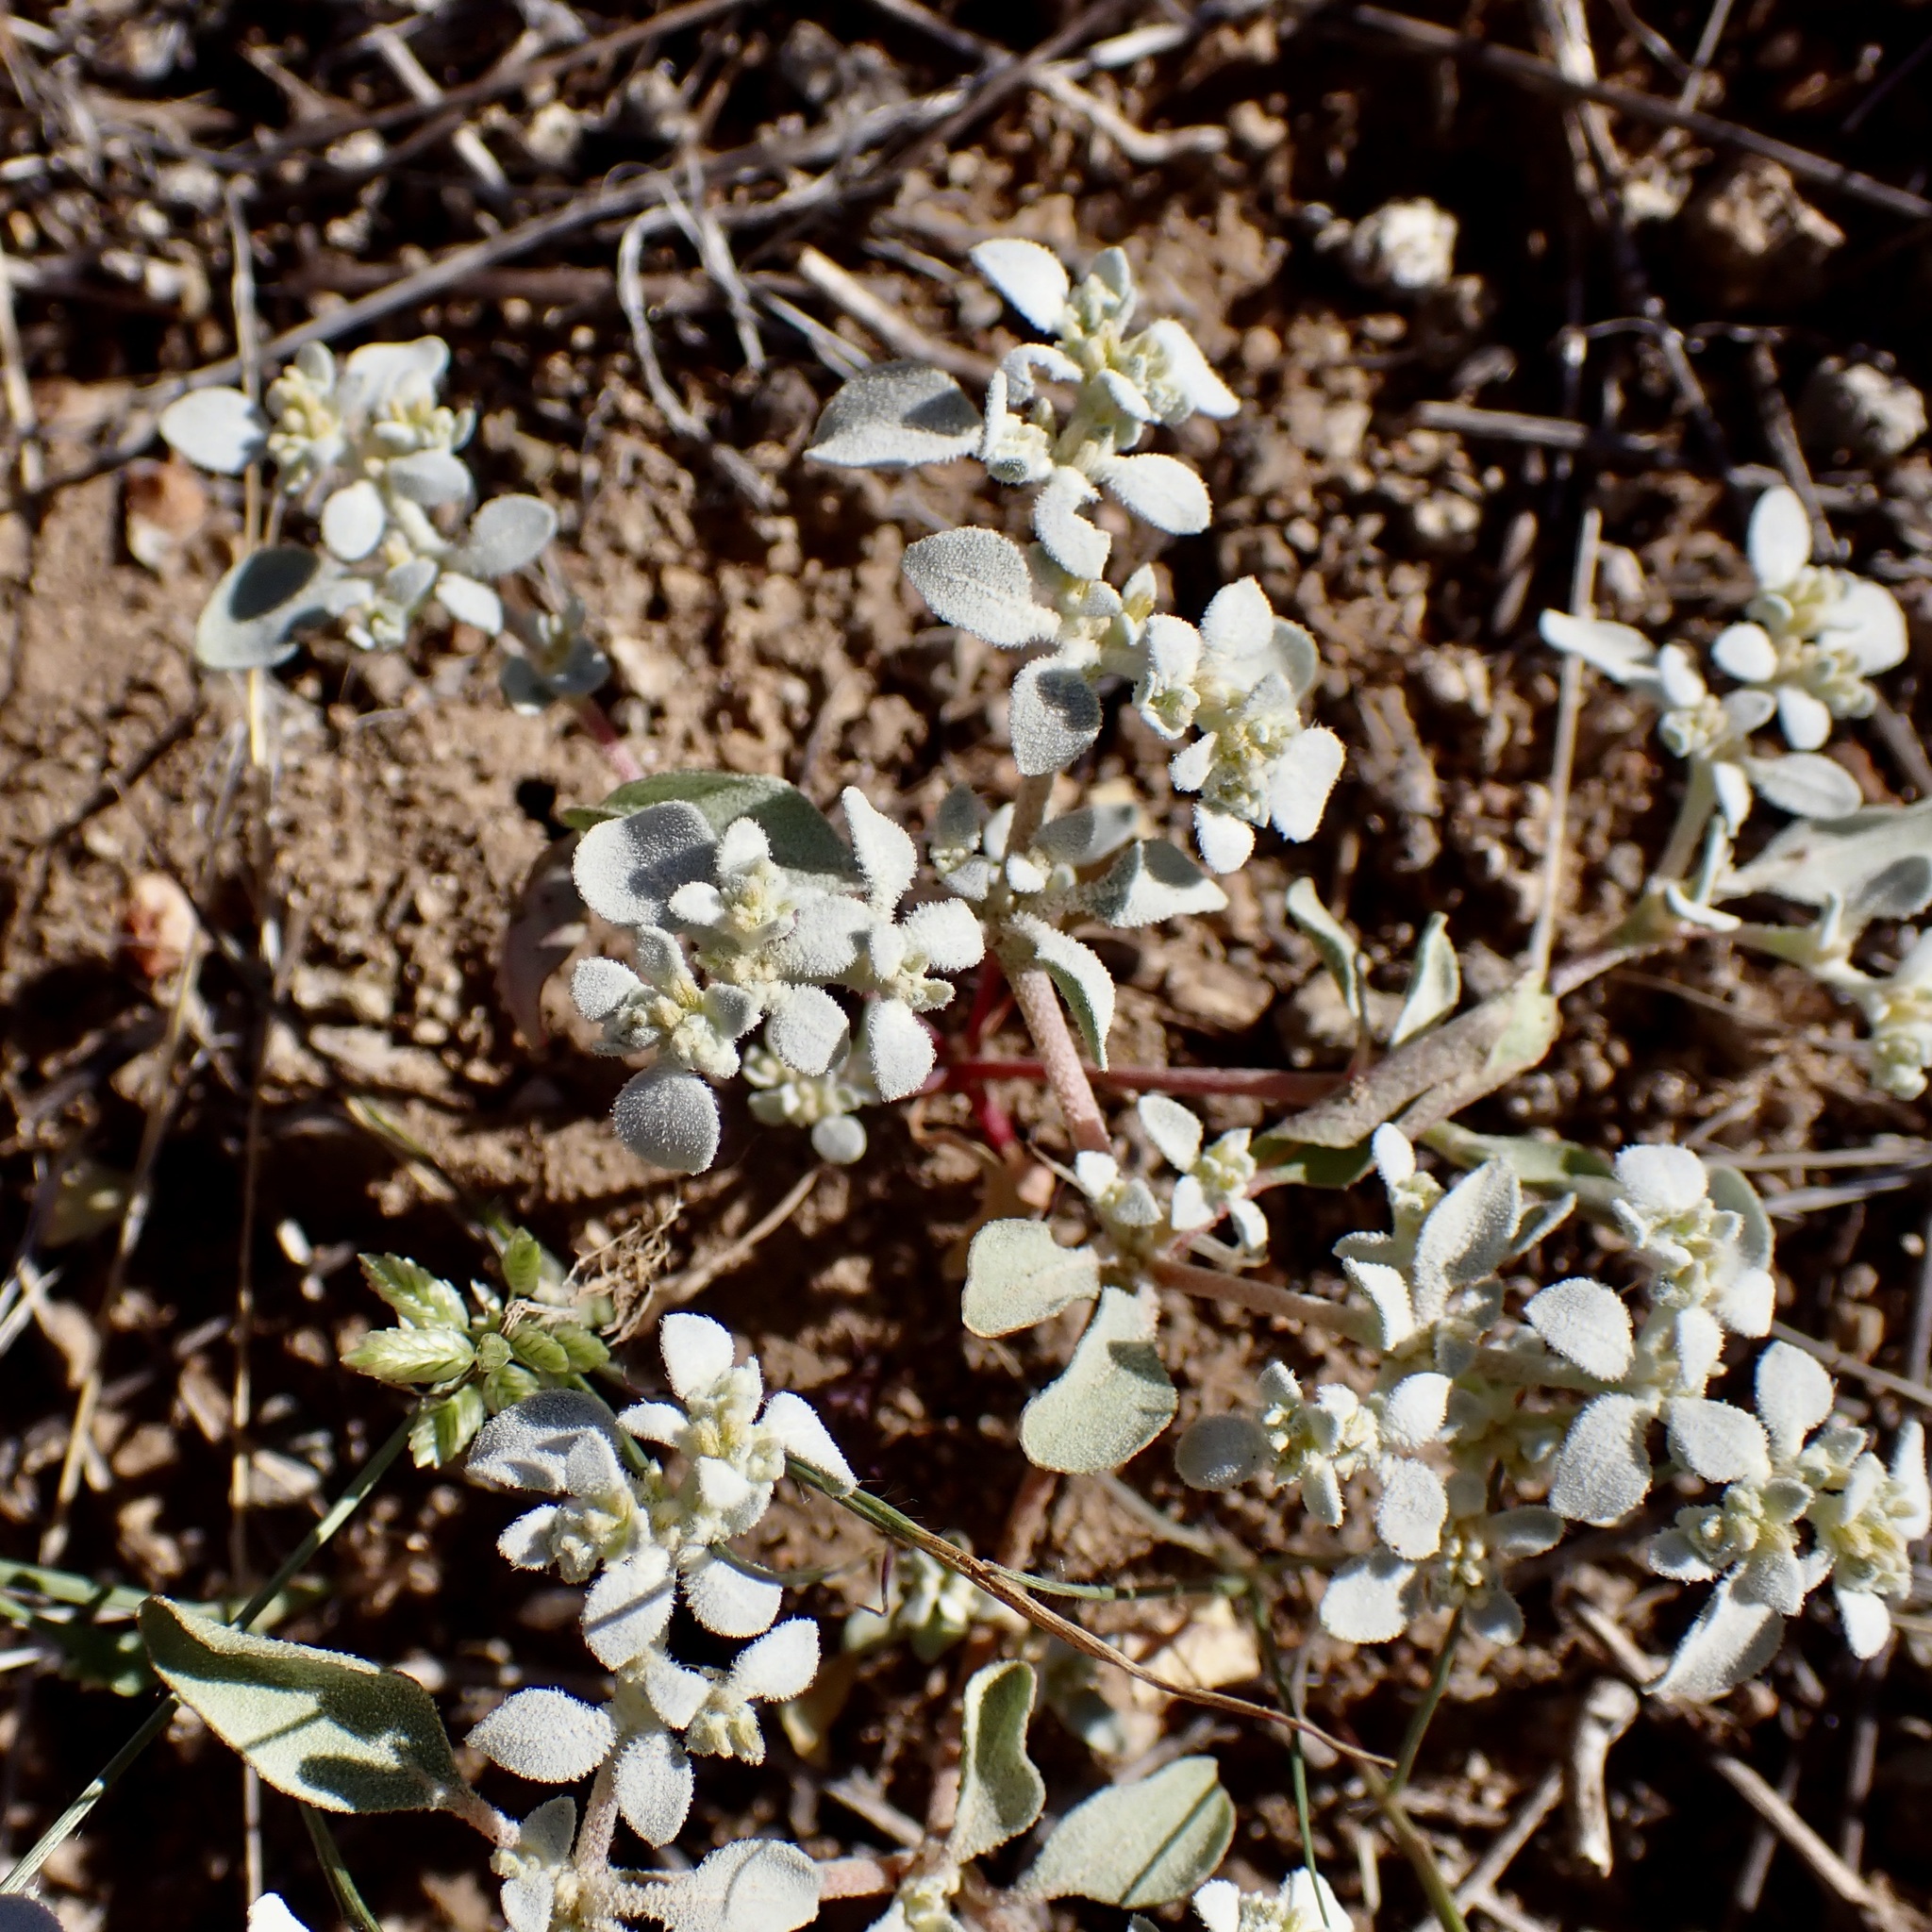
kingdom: Plantae
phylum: Tracheophyta
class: Magnoliopsida
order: Caryophyllales
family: Amaranthaceae
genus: Tidestromia
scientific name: Tidestromia lanuginosa
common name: Woolly tidestromia
